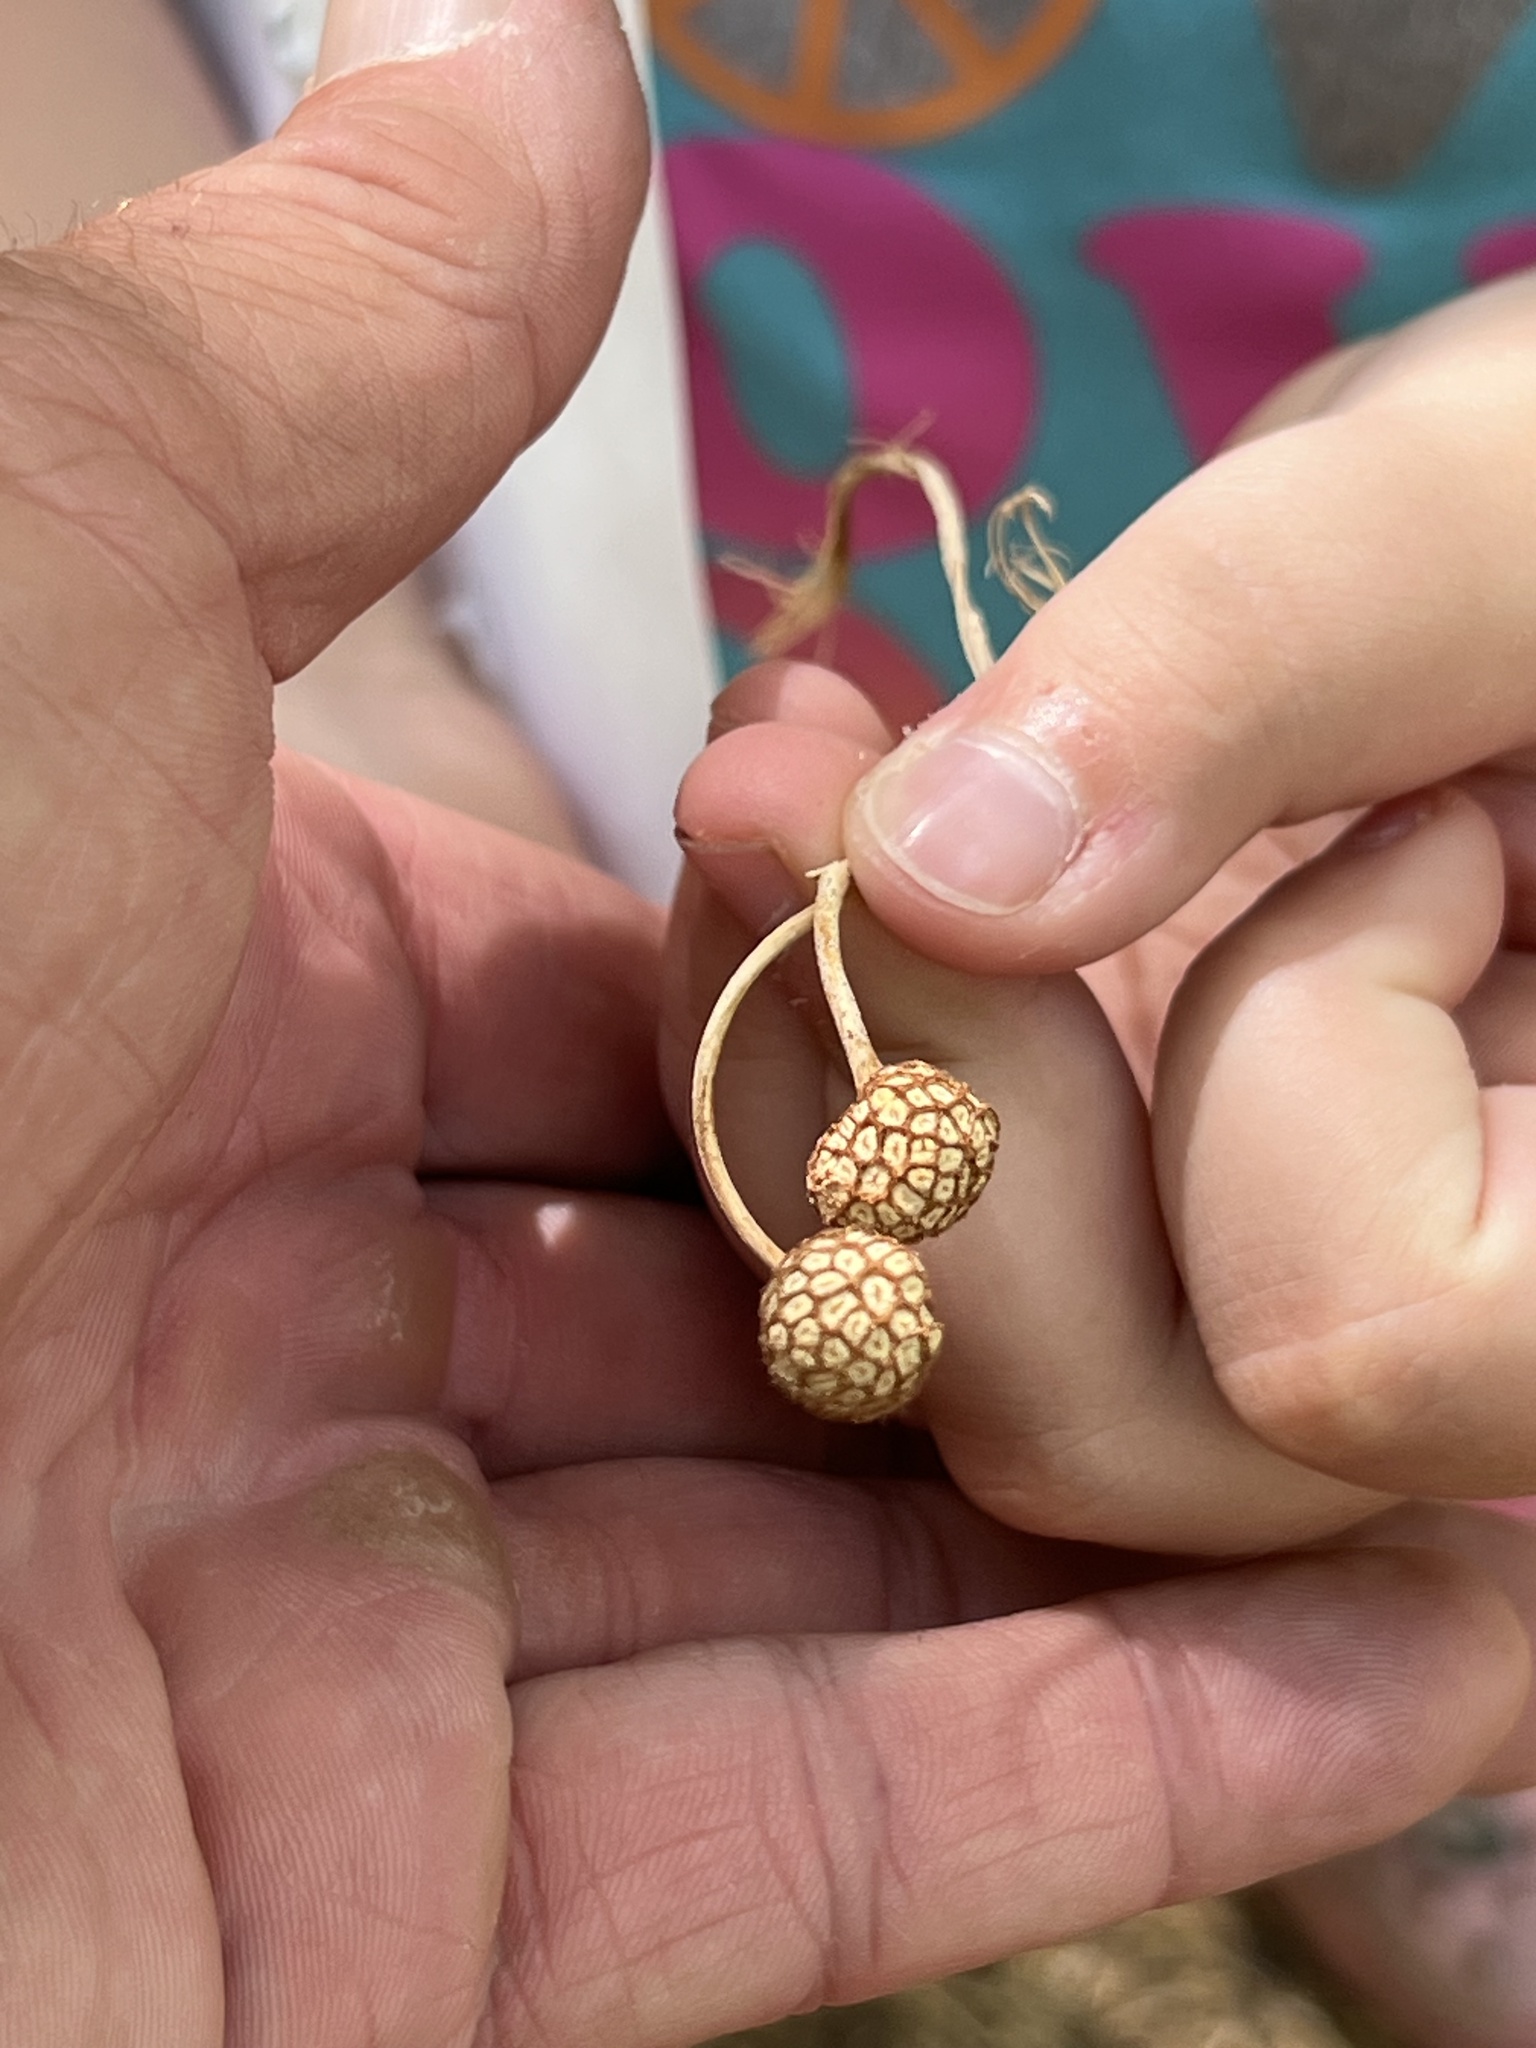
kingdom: Plantae
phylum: Tracheophyta
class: Magnoliopsida
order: Proteales
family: Platanaceae
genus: Platanus
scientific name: Platanus wrightii
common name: Arizona sycamore
